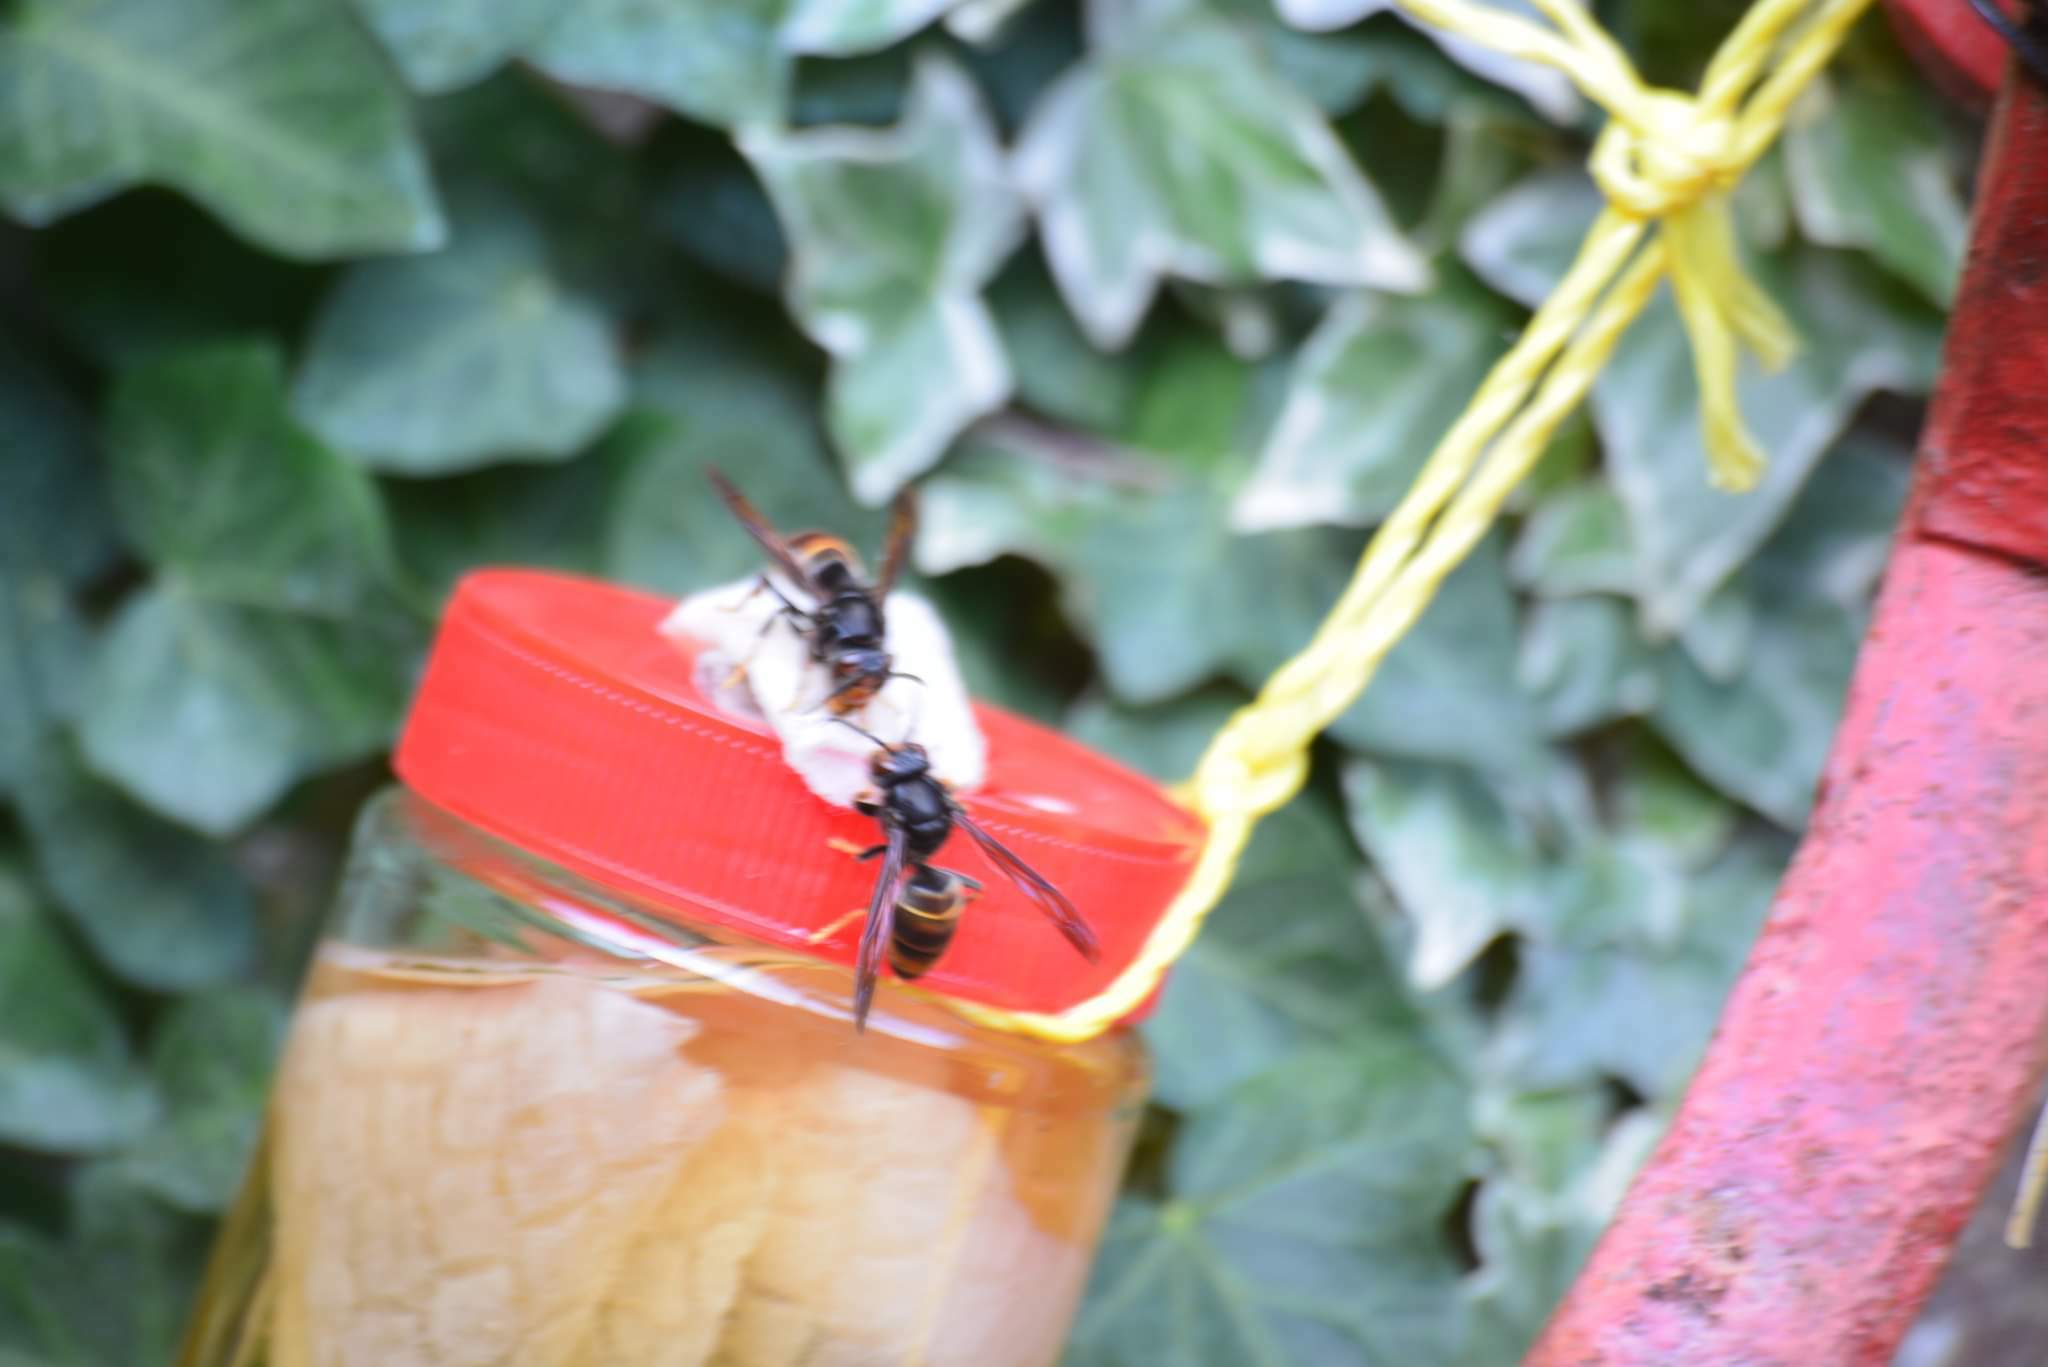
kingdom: Animalia
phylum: Arthropoda
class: Insecta
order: Hymenoptera
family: Vespidae
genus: Vespa
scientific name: Vespa velutina
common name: Asian hornet
